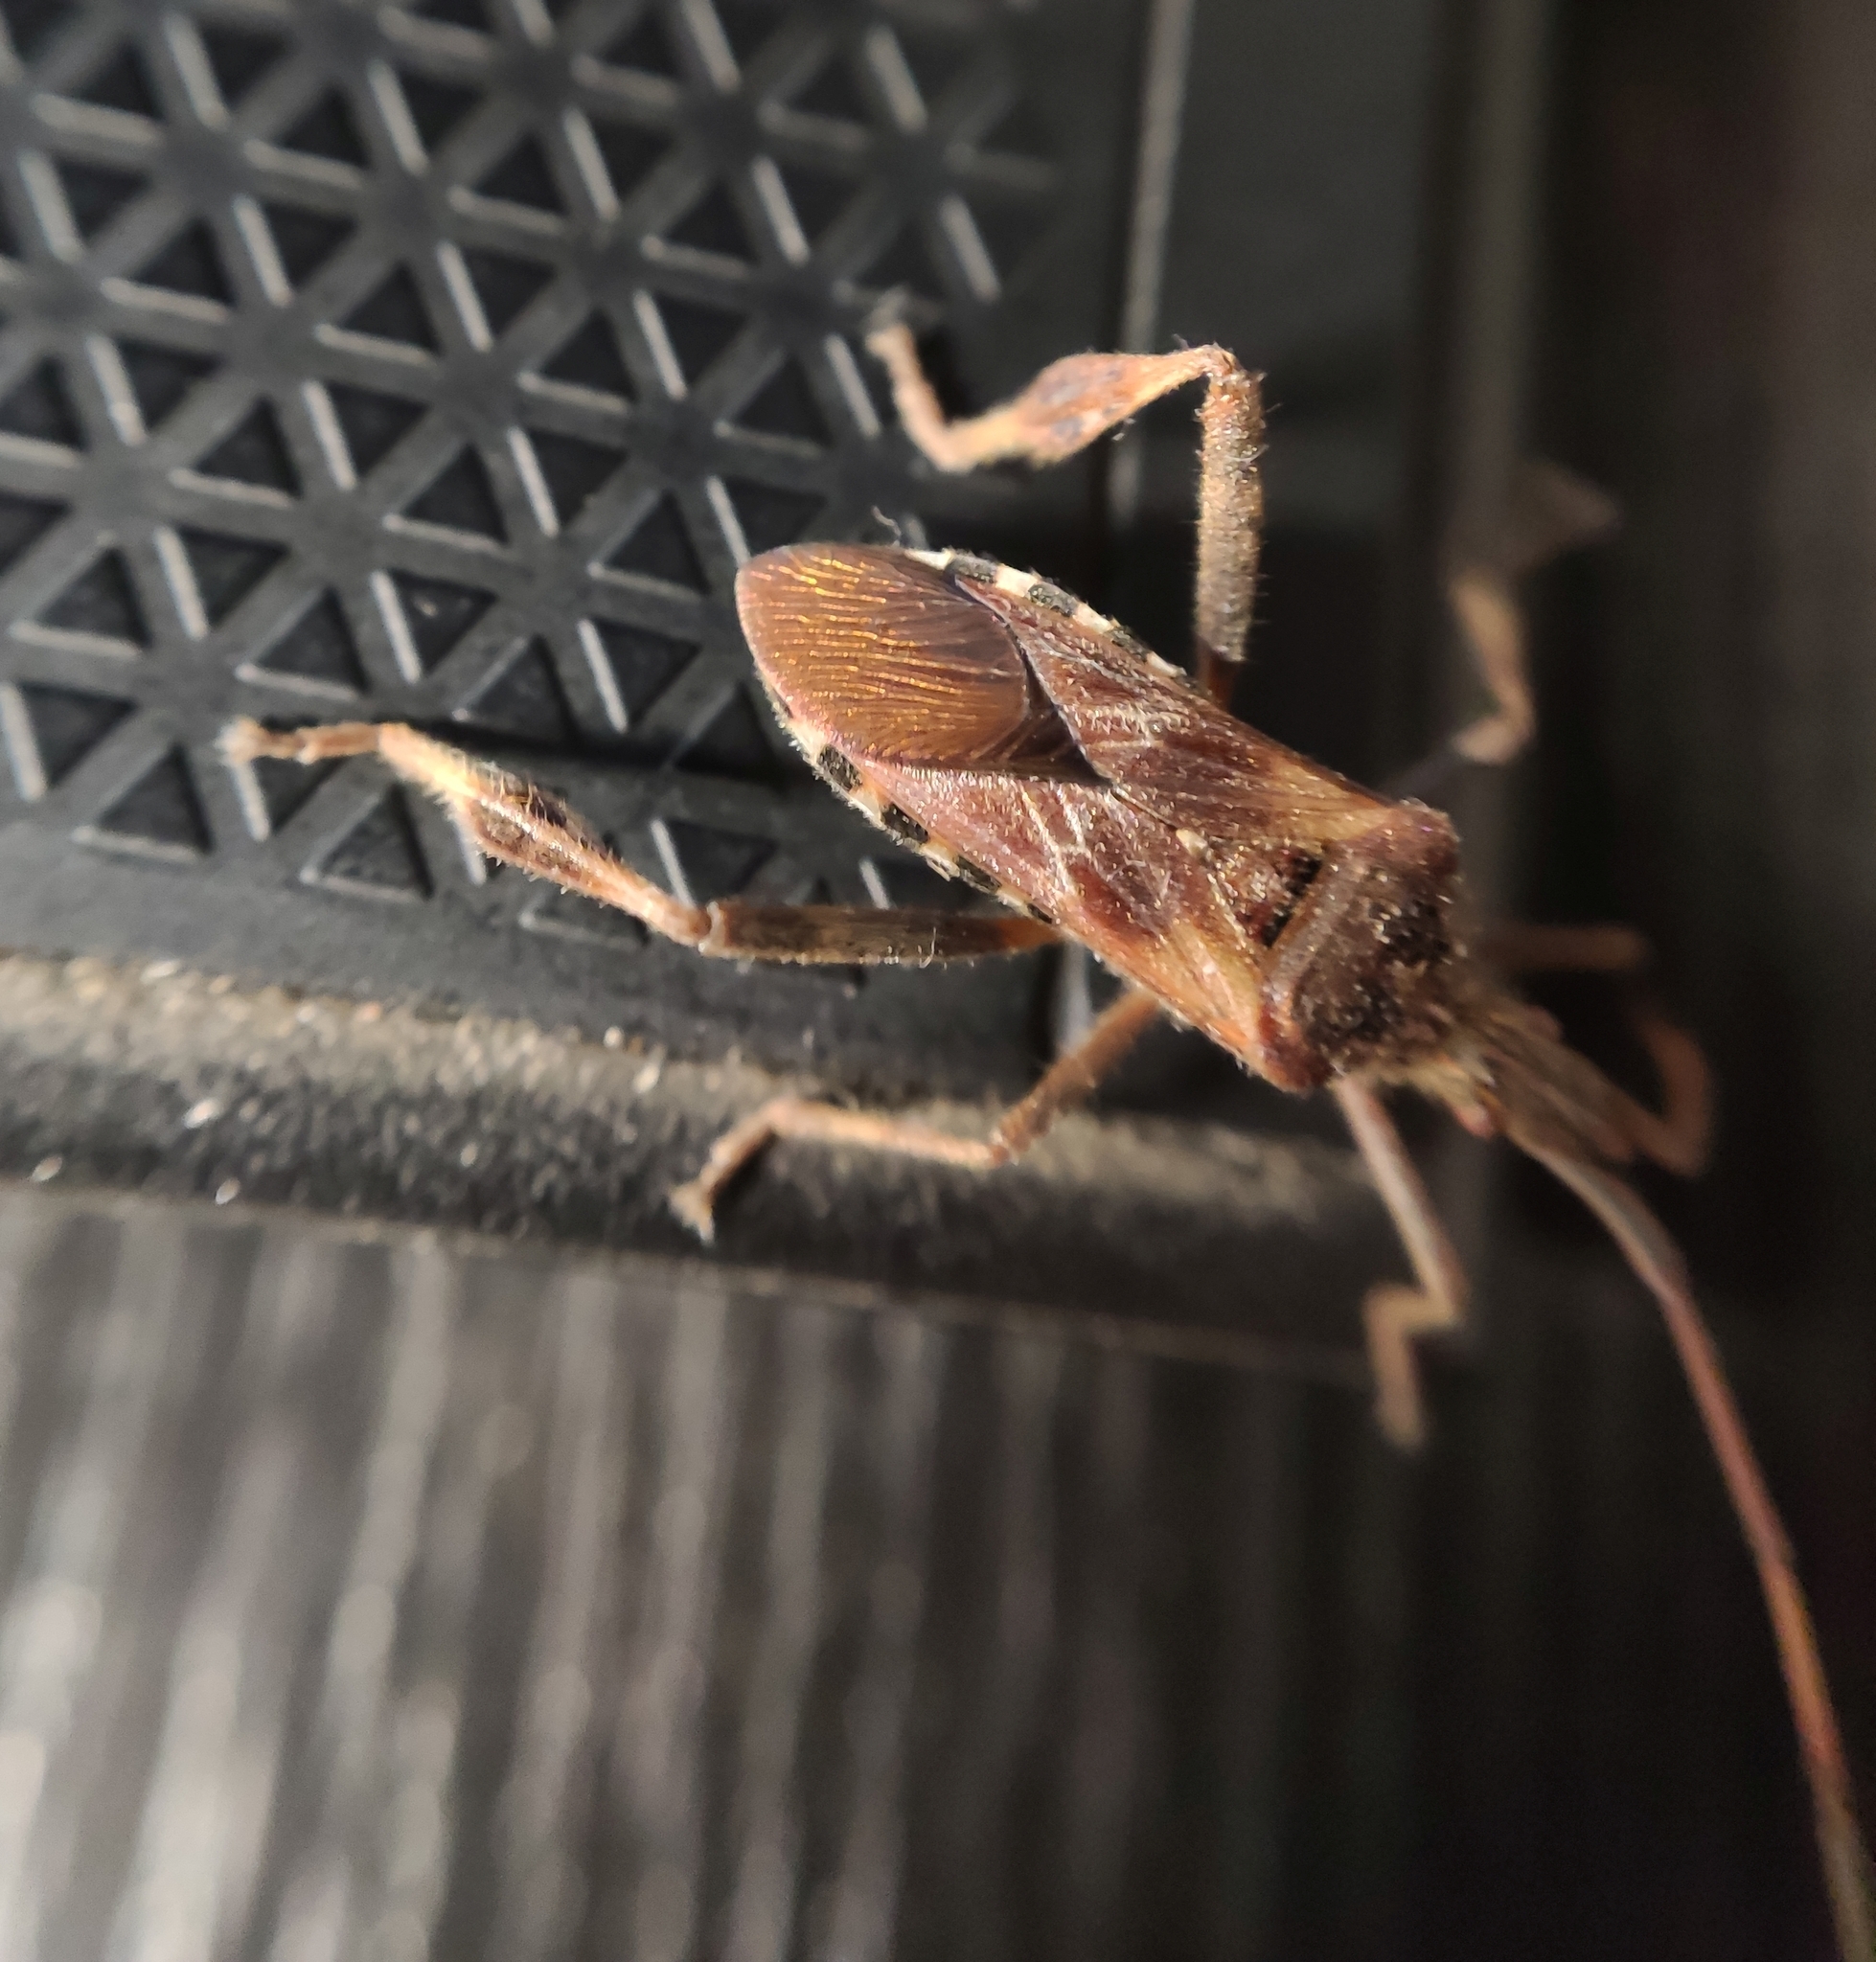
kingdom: Animalia
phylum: Arthropoda
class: Insecta
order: Hemiptera
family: Coreidae
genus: Leptoglossus
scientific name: Leptoglossus occidentalis
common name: Western conifer-seed bug
